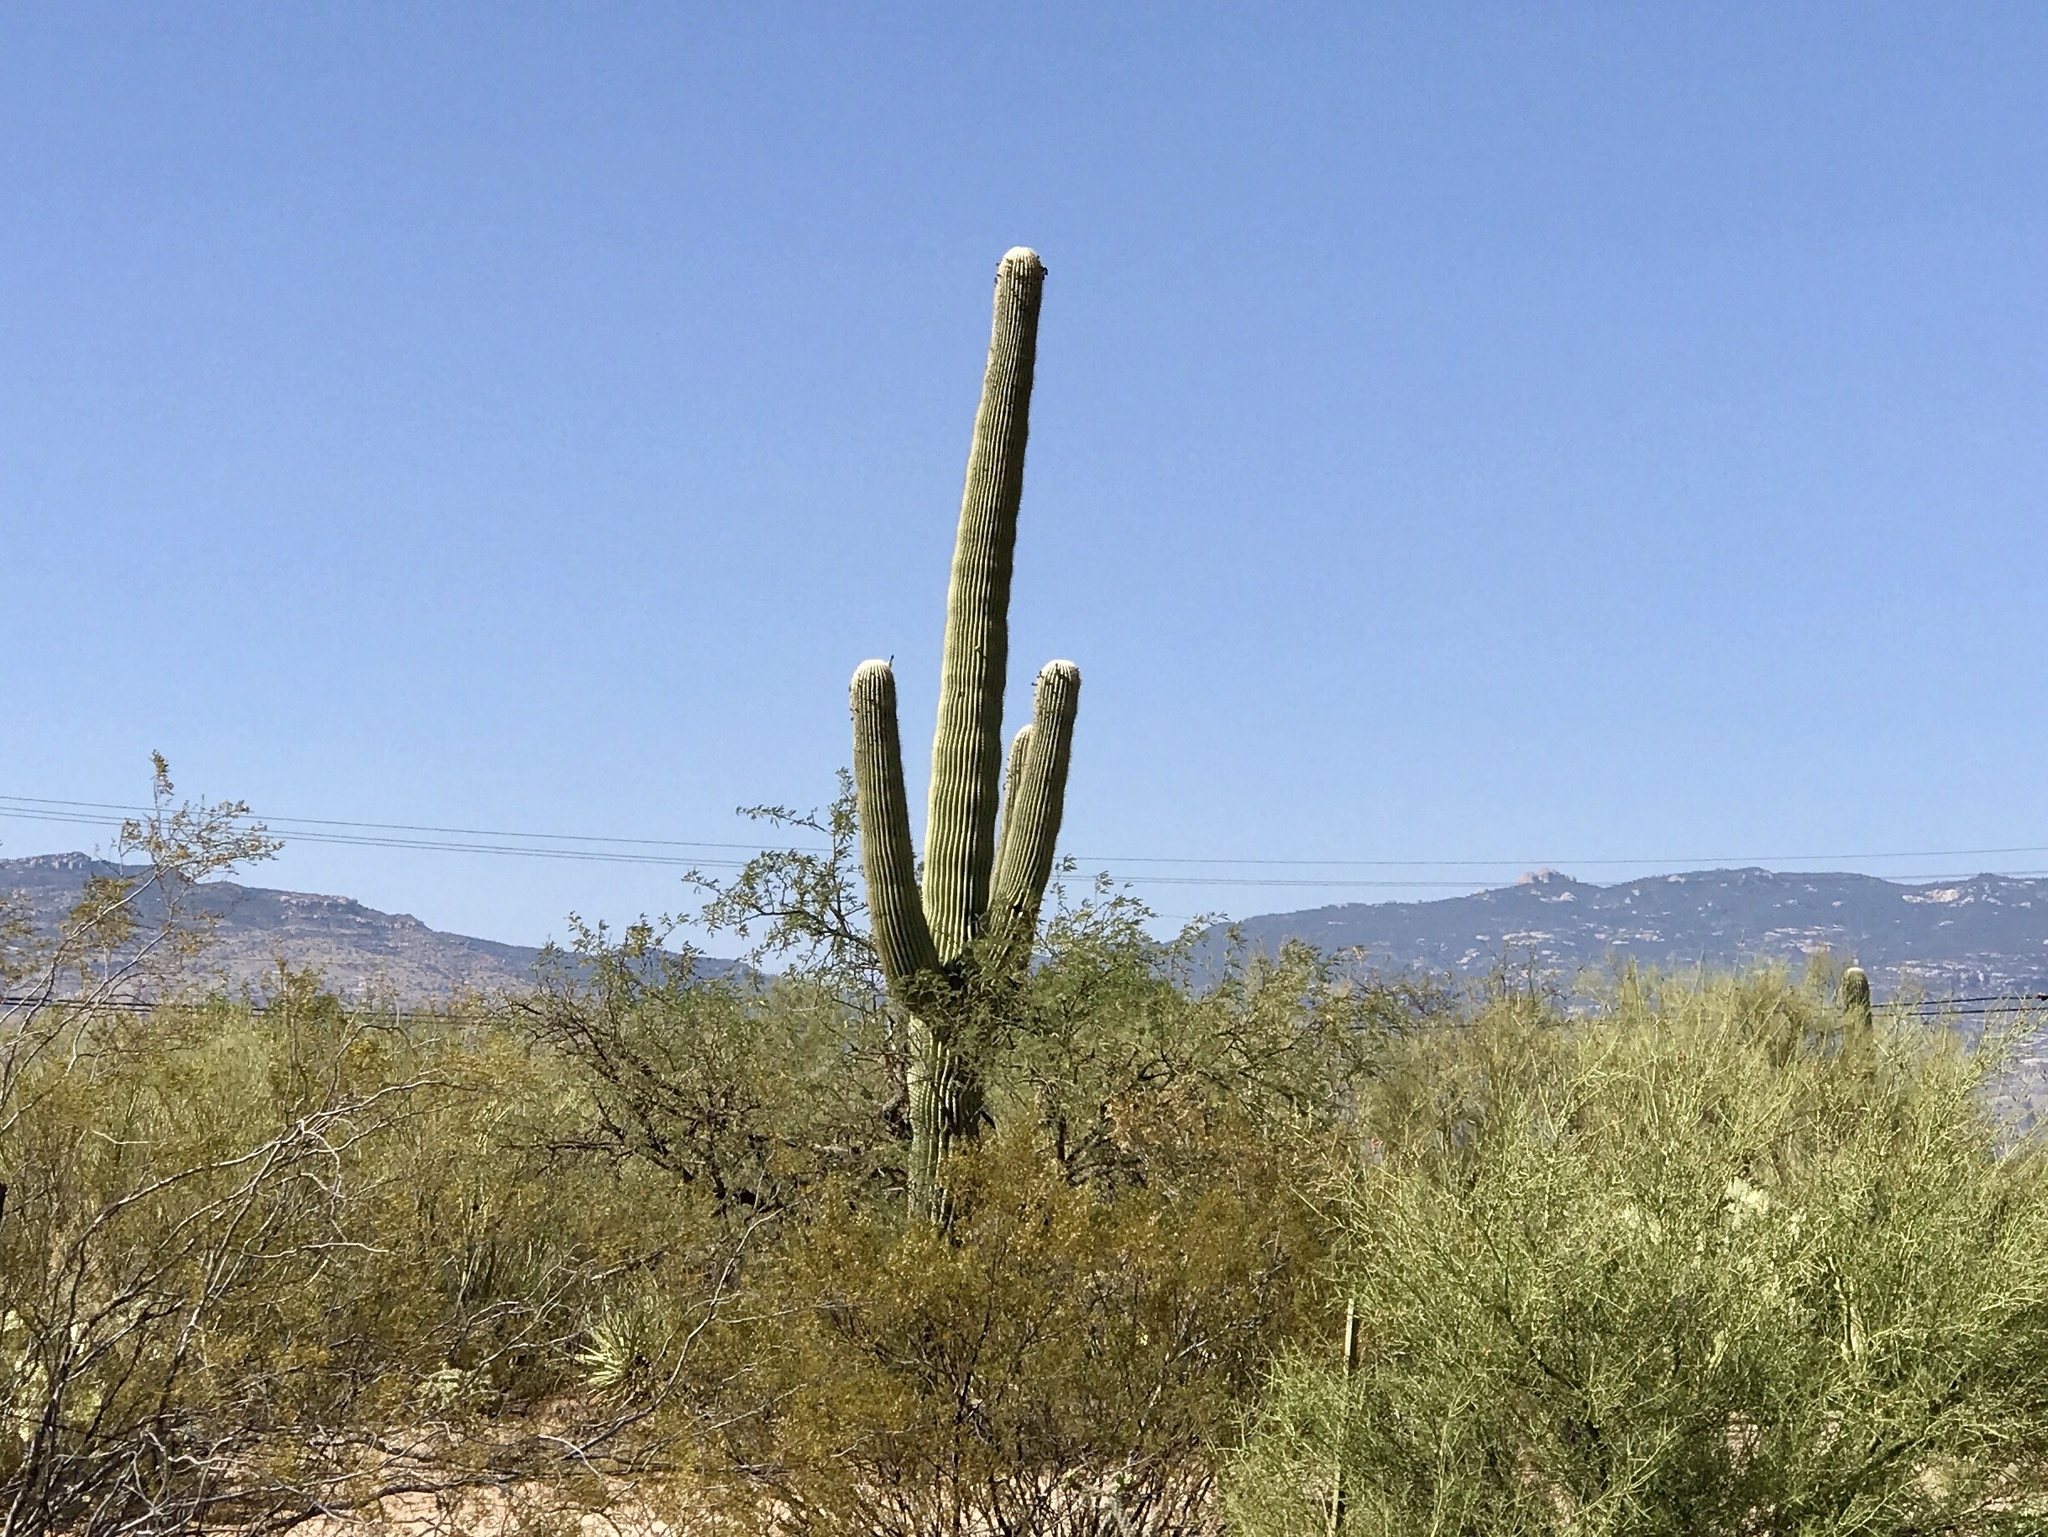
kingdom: Plantae
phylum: Tracheophyta
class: Magnoliopsida
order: Caryophyllales
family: Cactaceae
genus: Carnegiea
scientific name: Carnegiea gigantea
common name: Saguaro
